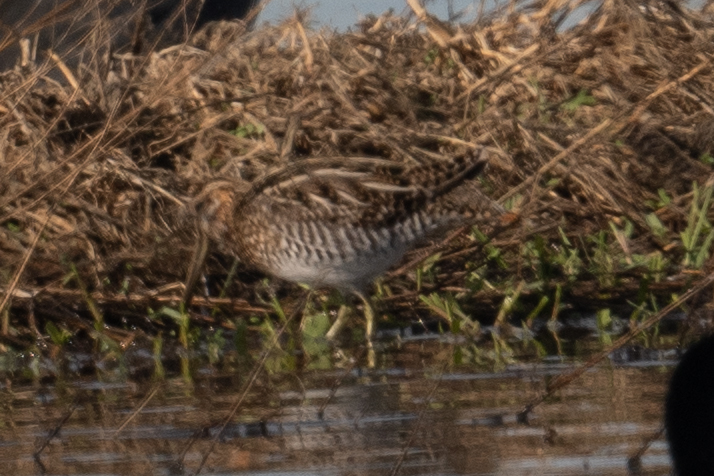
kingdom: Animalia
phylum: Chordata
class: Aves
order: Charadriiformes
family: Scolopacidae
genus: Gallinago
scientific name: Gallinago delicata
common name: Wilson's snipe
